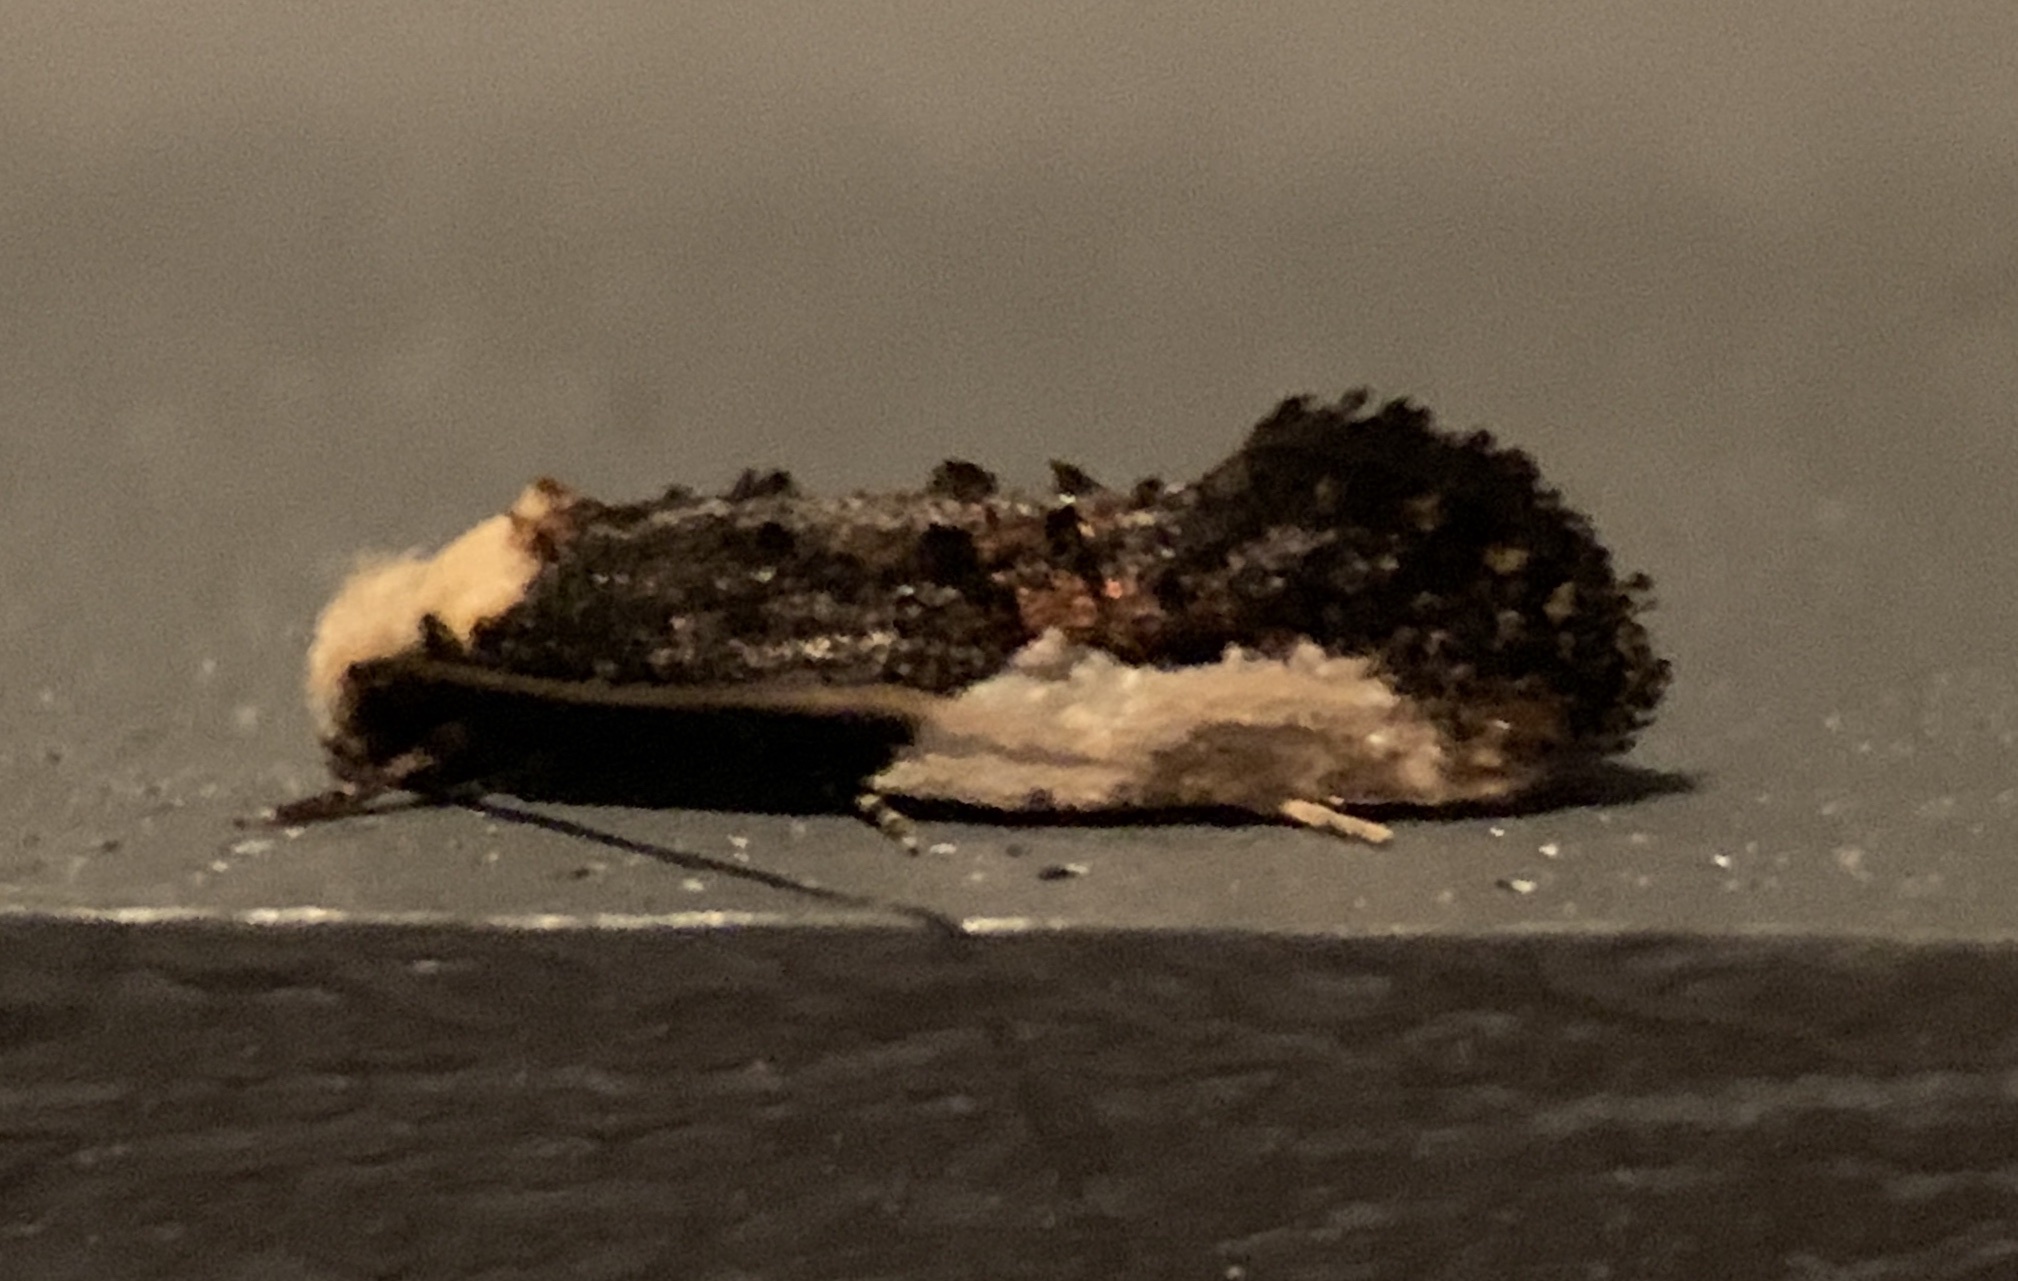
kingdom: Animalia
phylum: Arthropoda
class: Insecta
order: Lepidoptera
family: Tineidae
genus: Monopis
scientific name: Monopis longella
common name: Pavlovski's monopis moth
